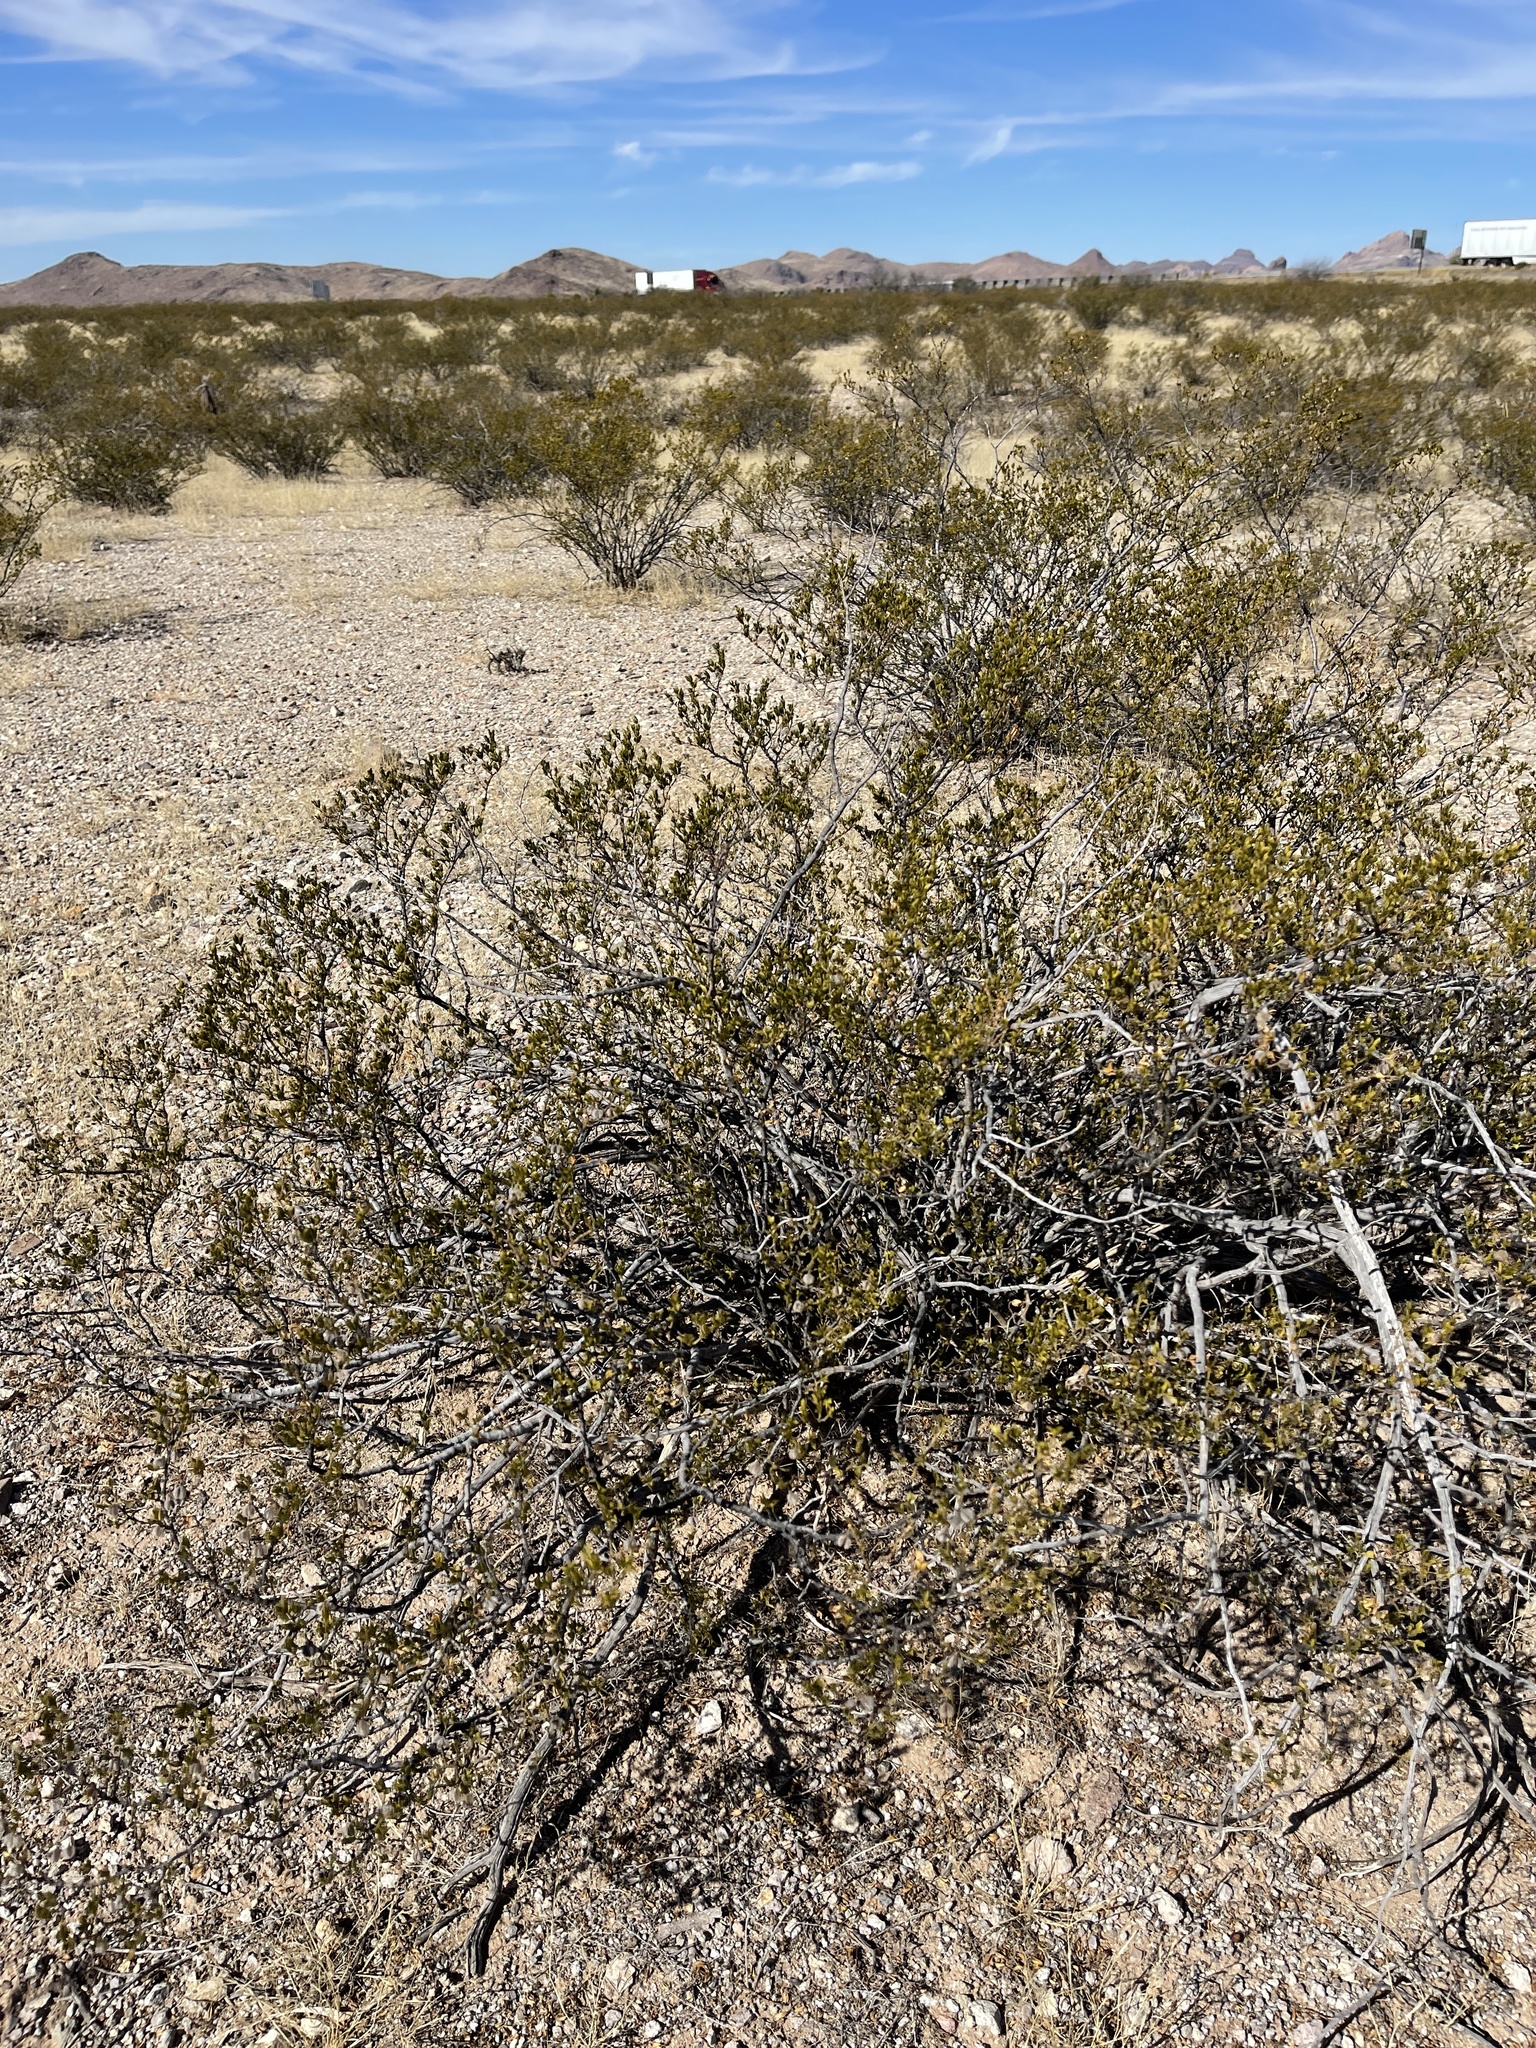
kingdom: Plantae
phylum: Tracheophyta
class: Magnoliopsida
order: Zygophyllales
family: Zygophyllaceae
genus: Larrea
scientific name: Larrea tridentata
